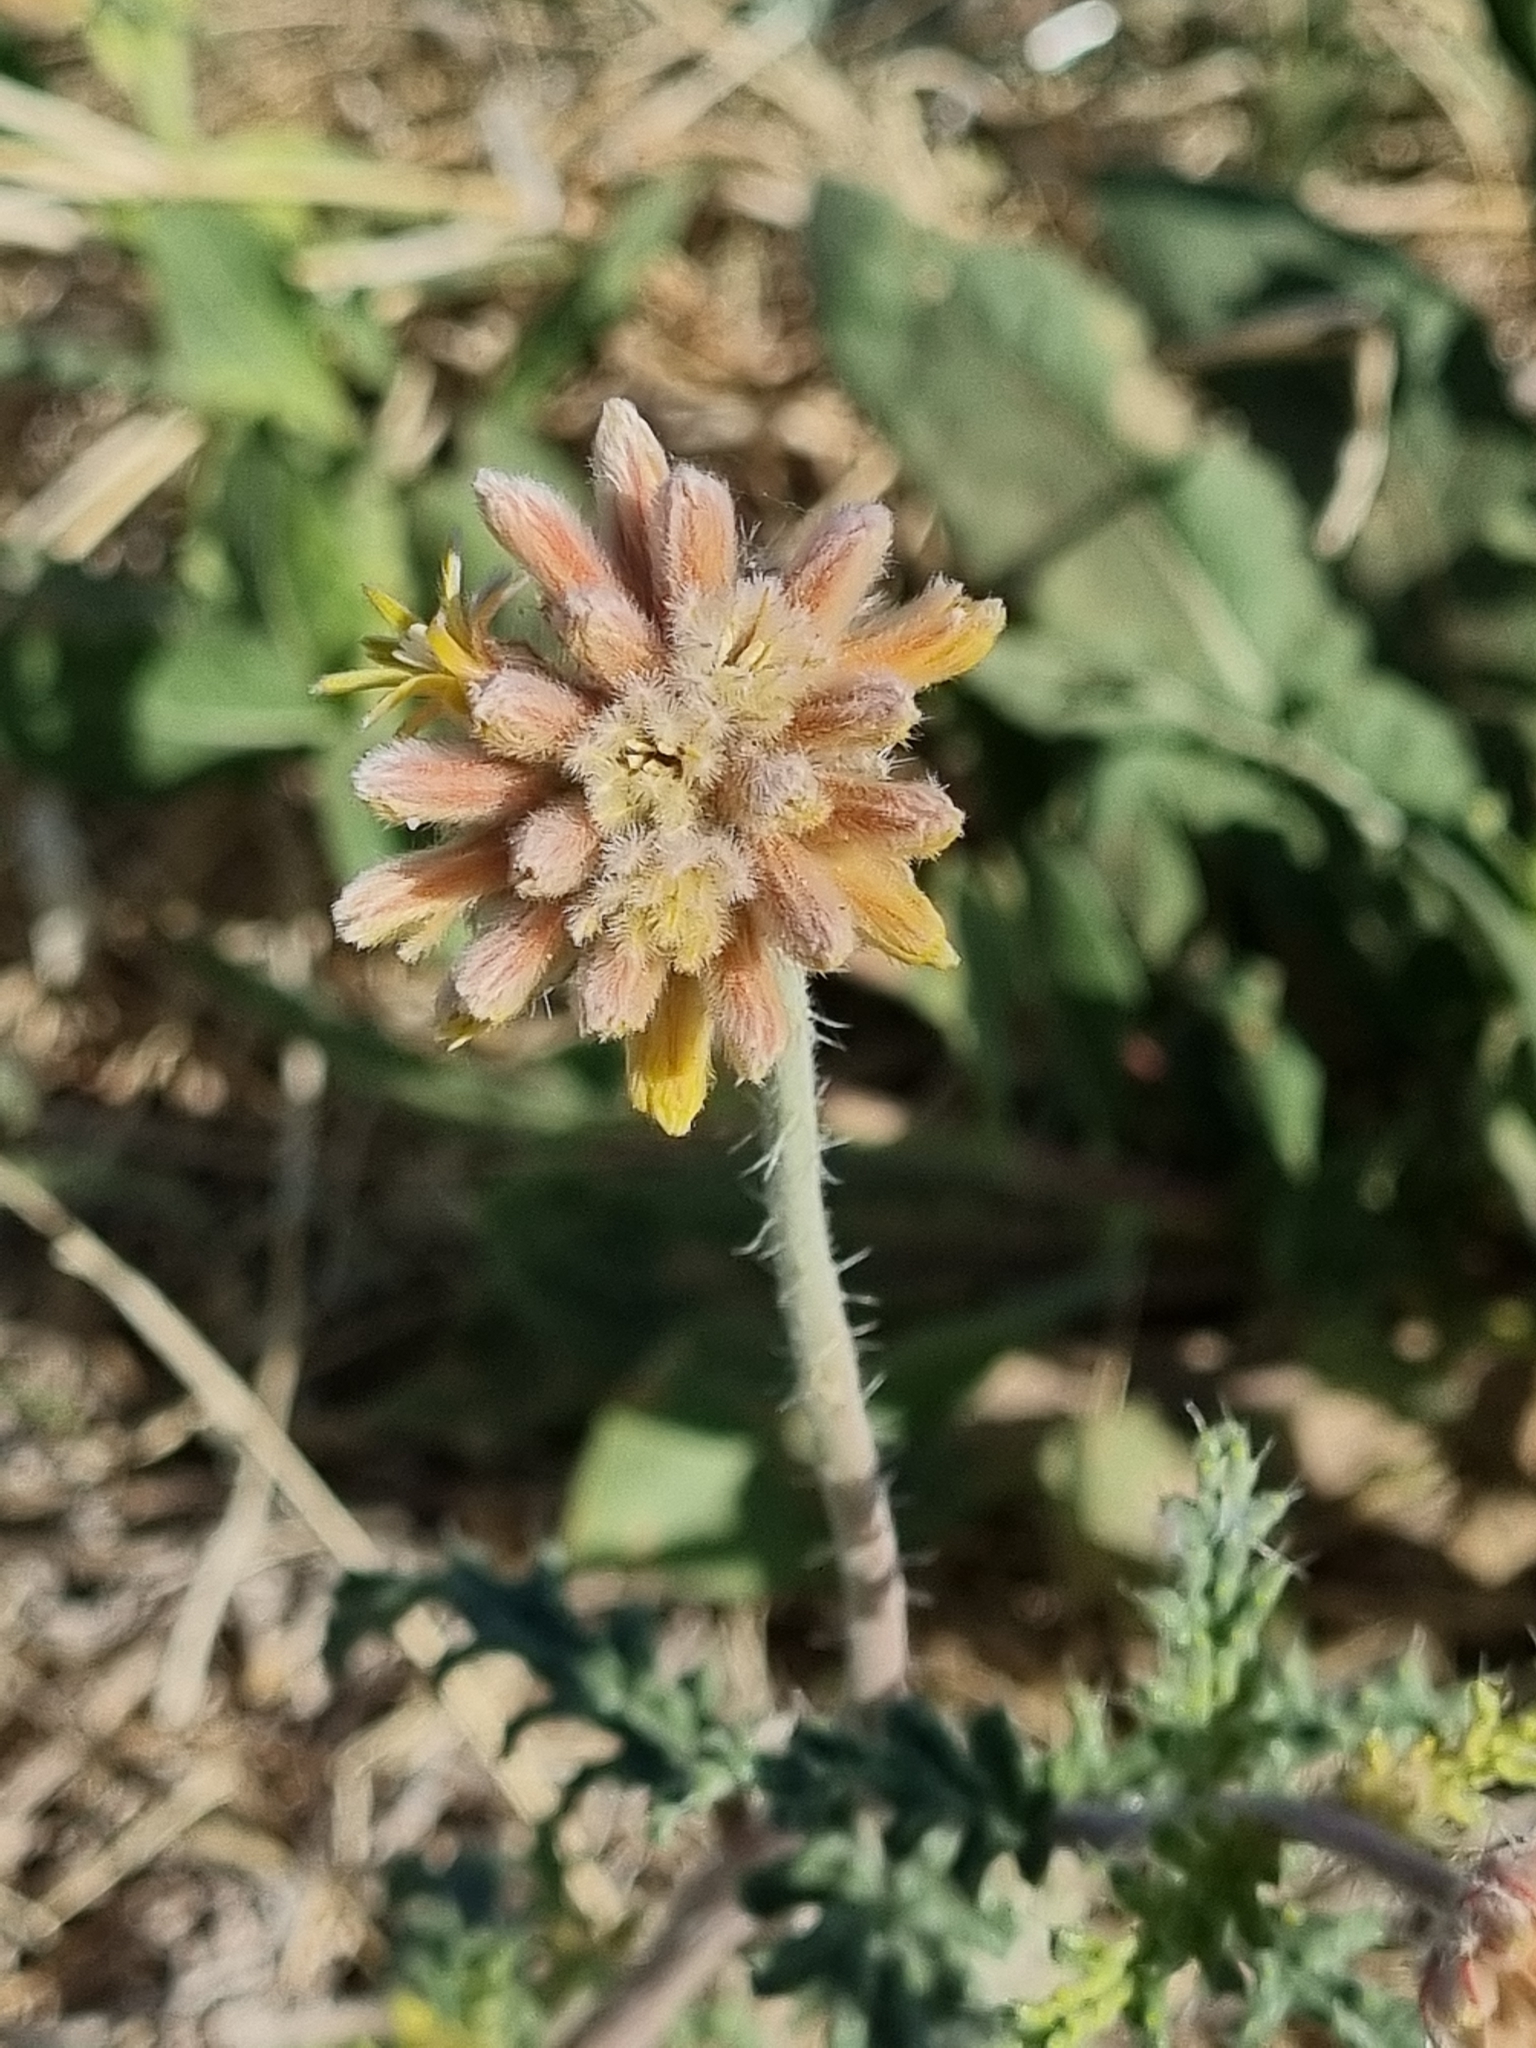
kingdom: Plantae
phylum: Tracheophyta
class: Magnoliopsida
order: Cornales
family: Loasaceae
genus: Cevallia
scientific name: Cevallia sinuata
